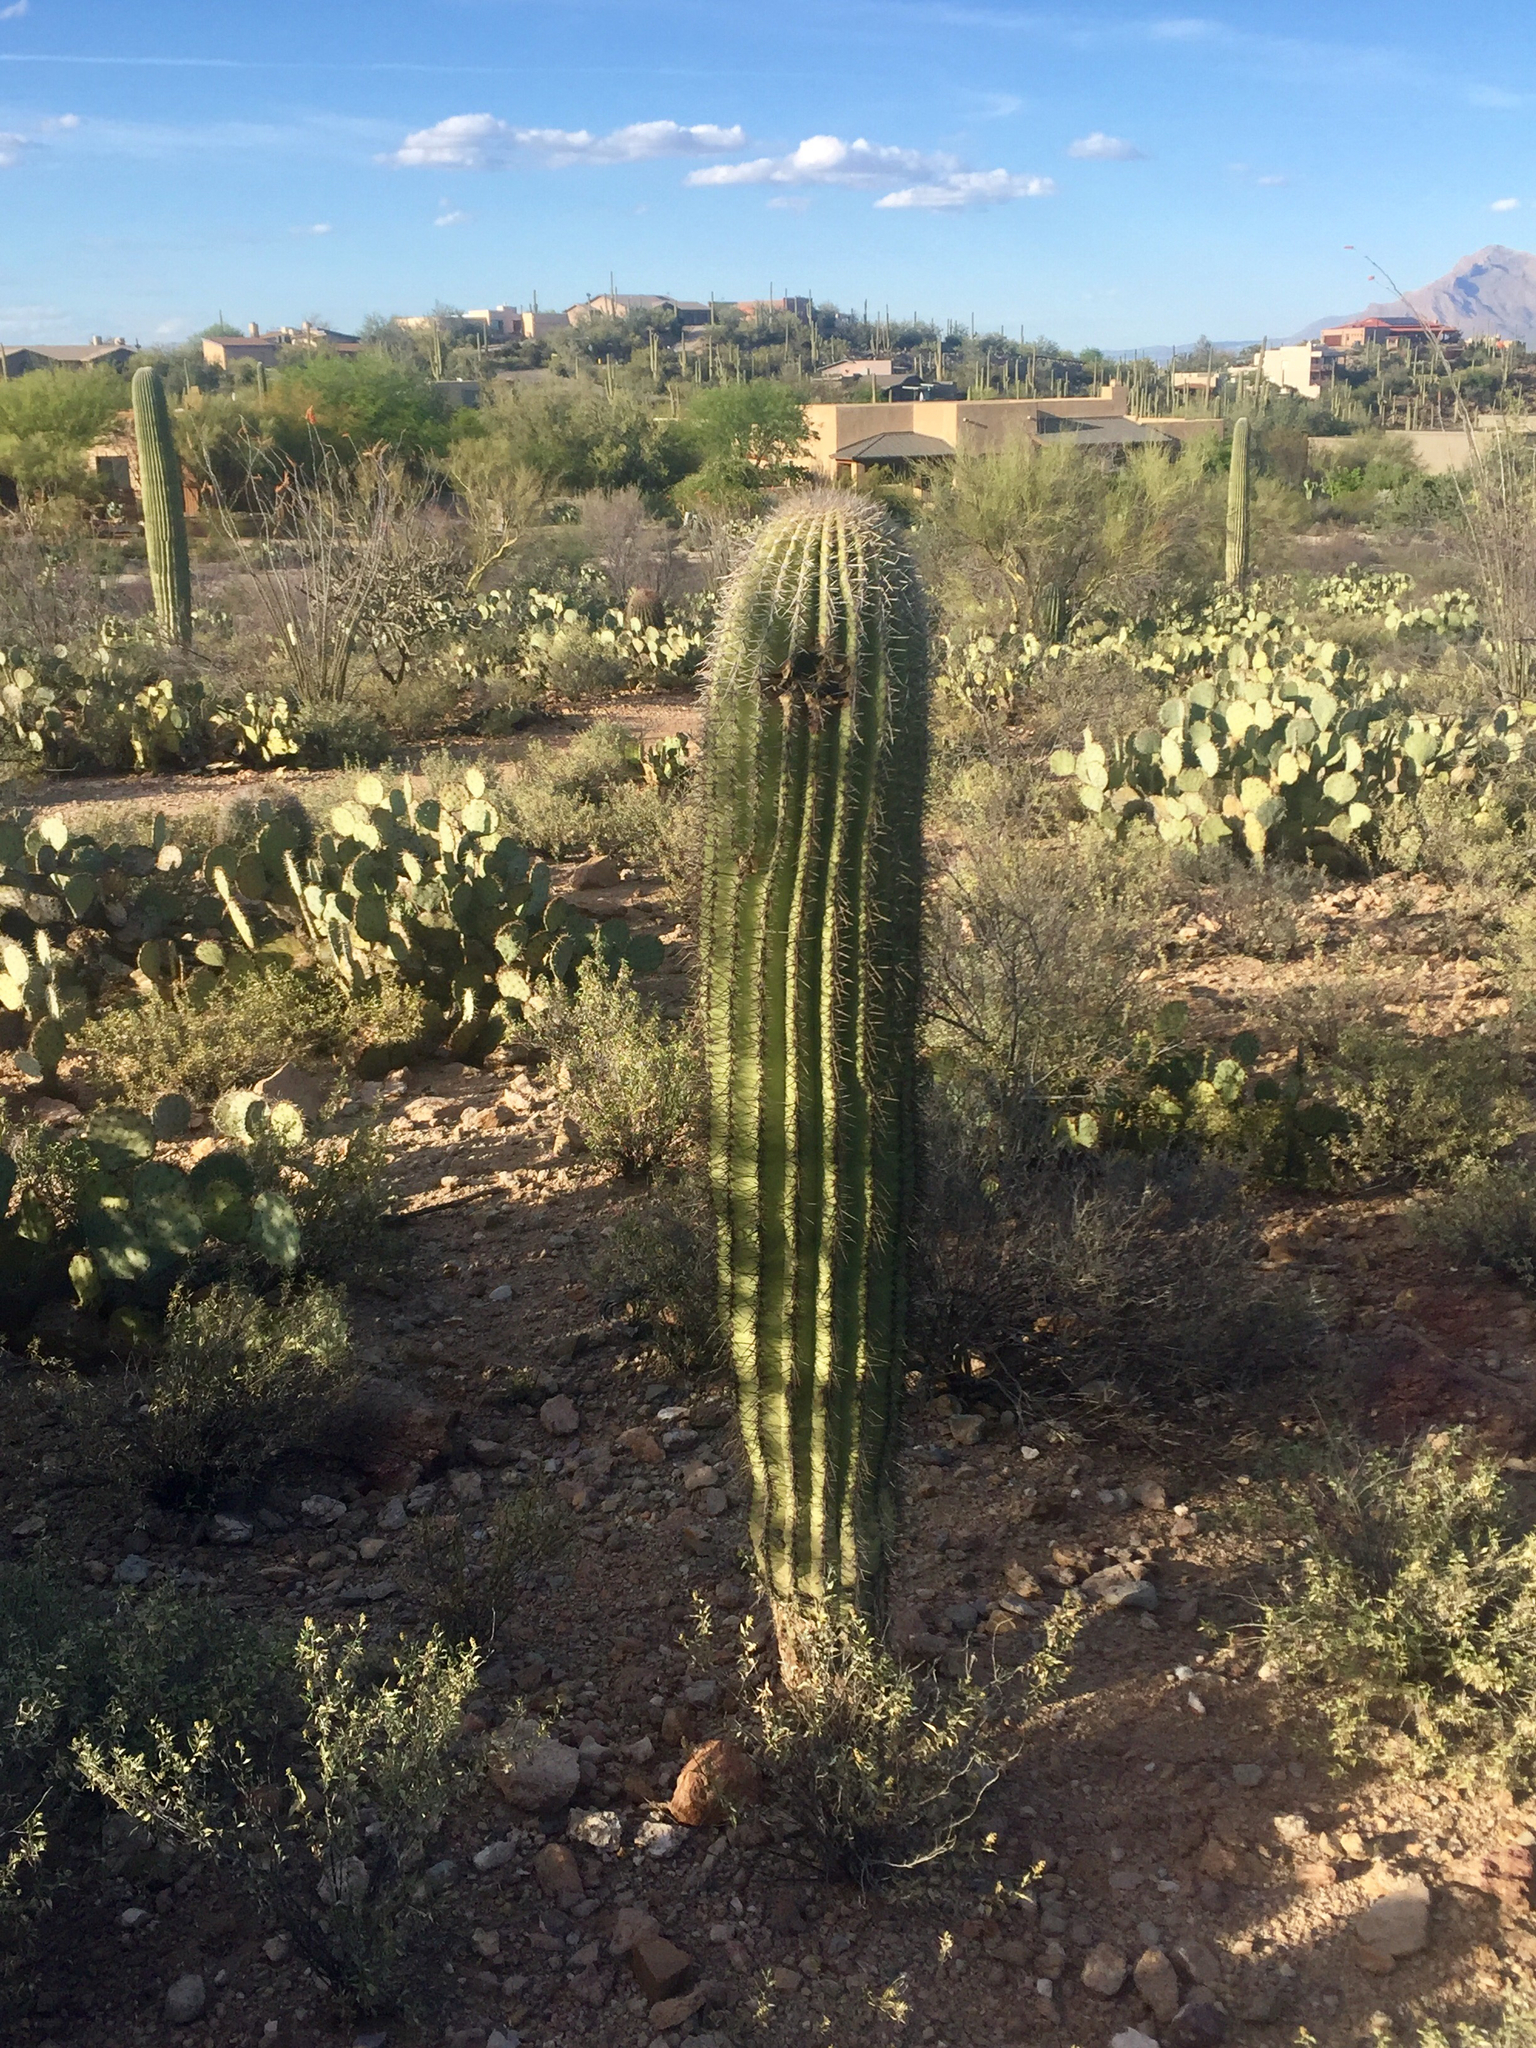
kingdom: Plantae
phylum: Tracheophyta
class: Magnoliopsida
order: Caryophyllales
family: Cactaceae
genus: Carnegiea
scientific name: Carnegiea gigantea
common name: Saguaro
